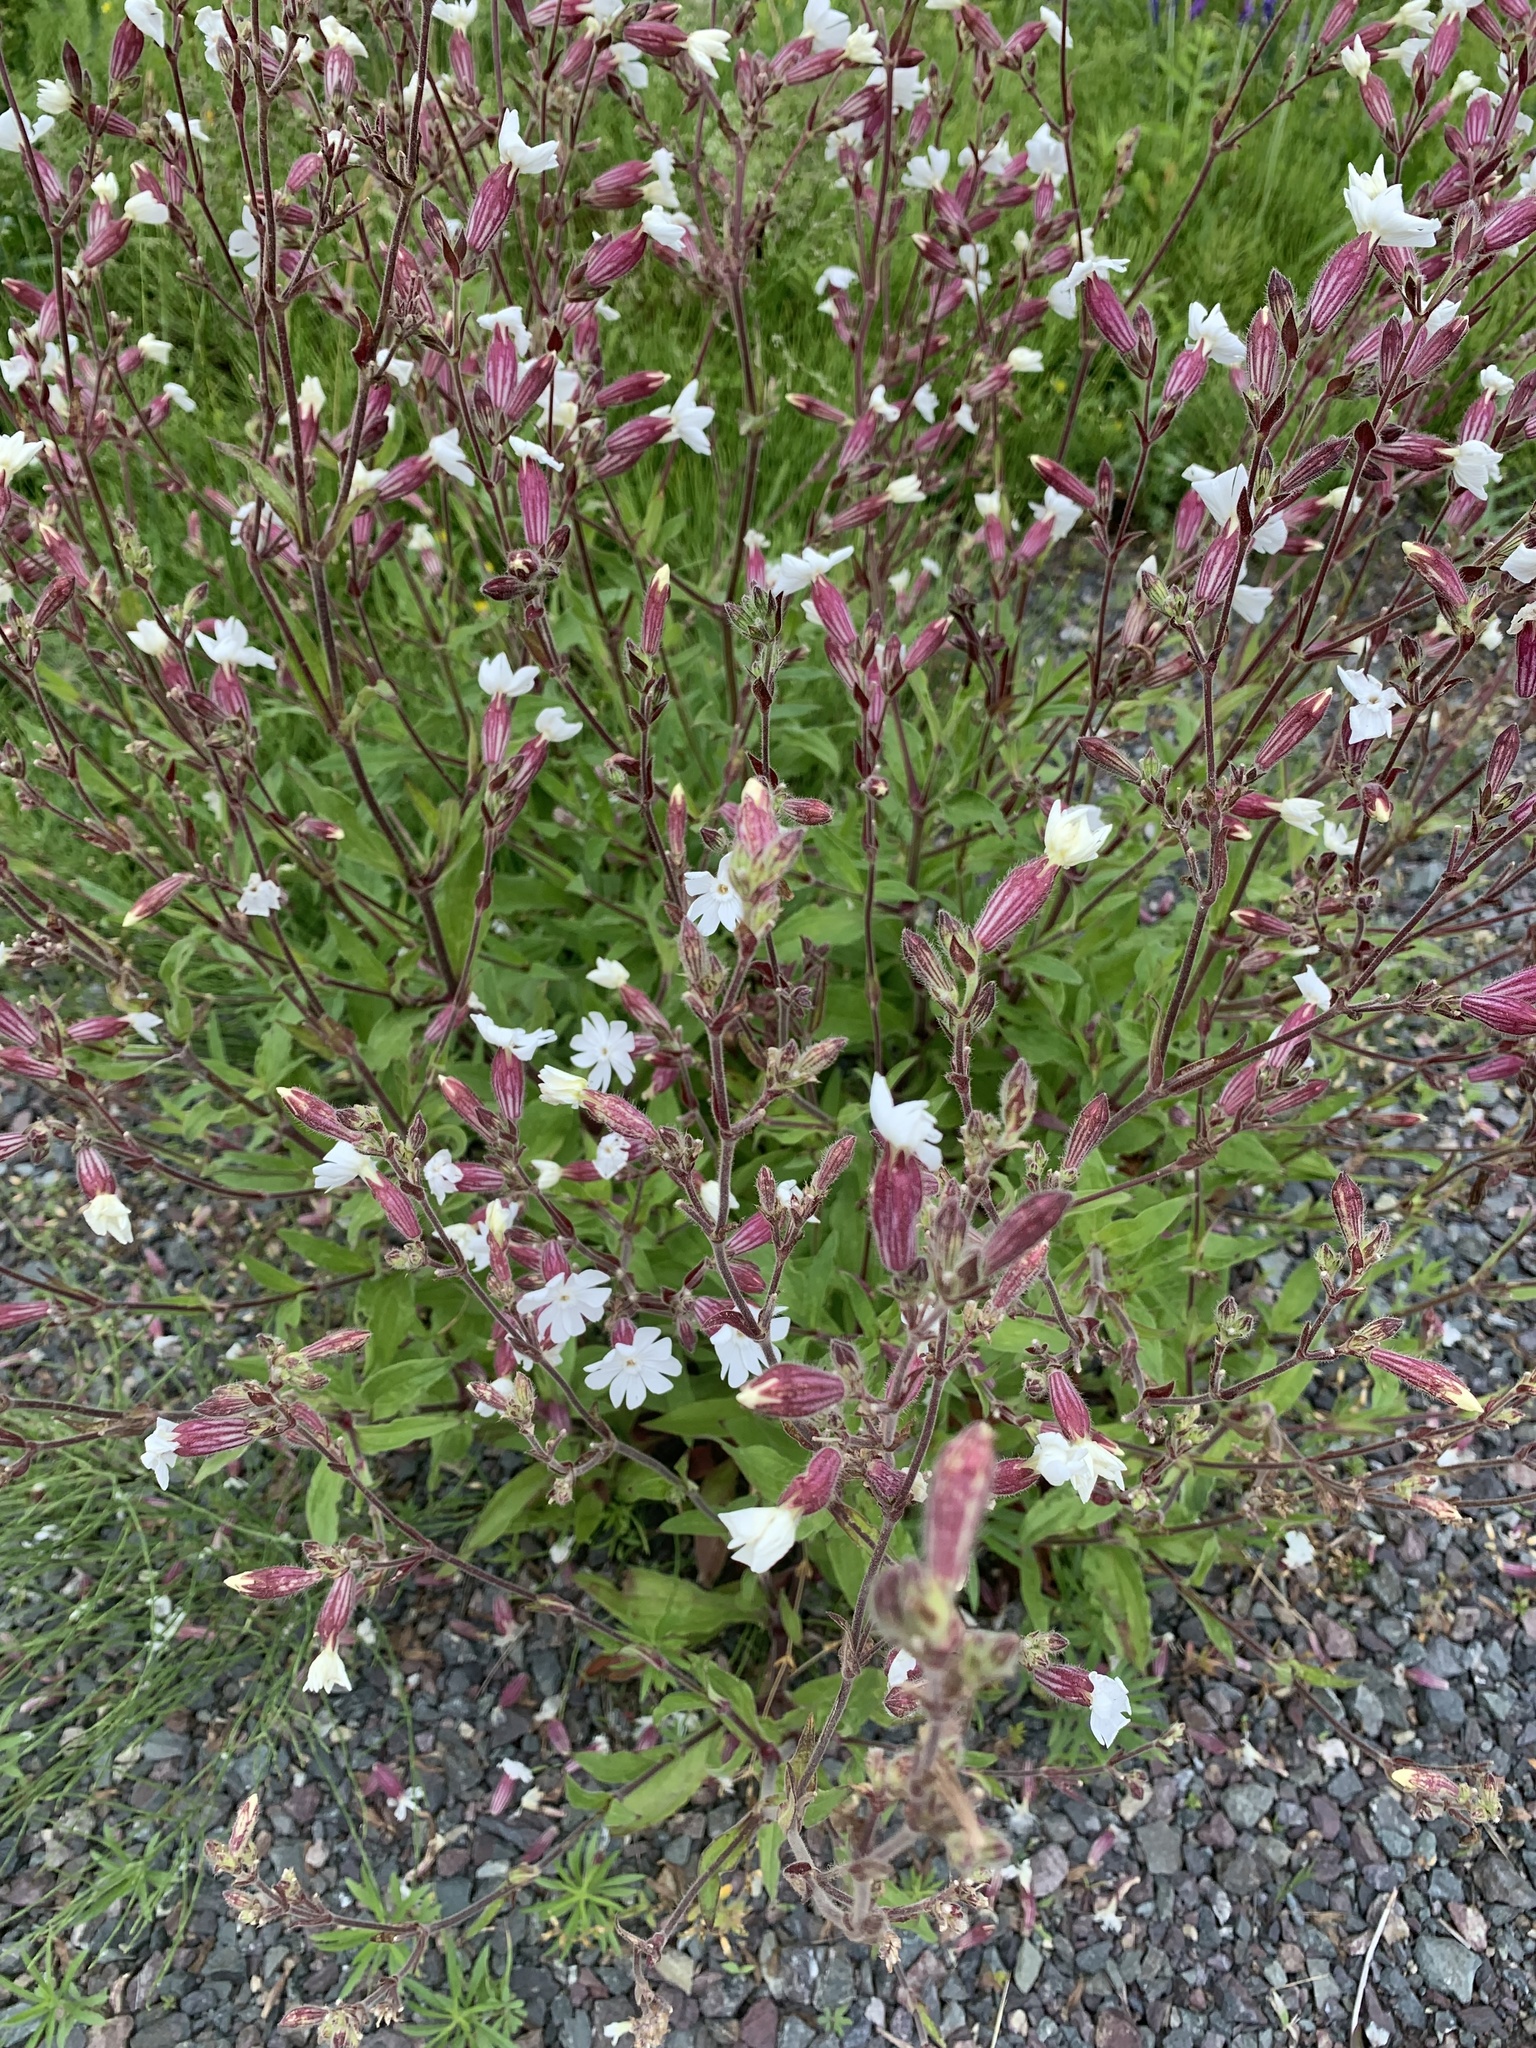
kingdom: Plantae
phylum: Tracheophyta
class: Magnoliopsida
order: Caryophyllales
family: Caryophyllaceae
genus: Silene
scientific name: Silene latifolia
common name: White campion
